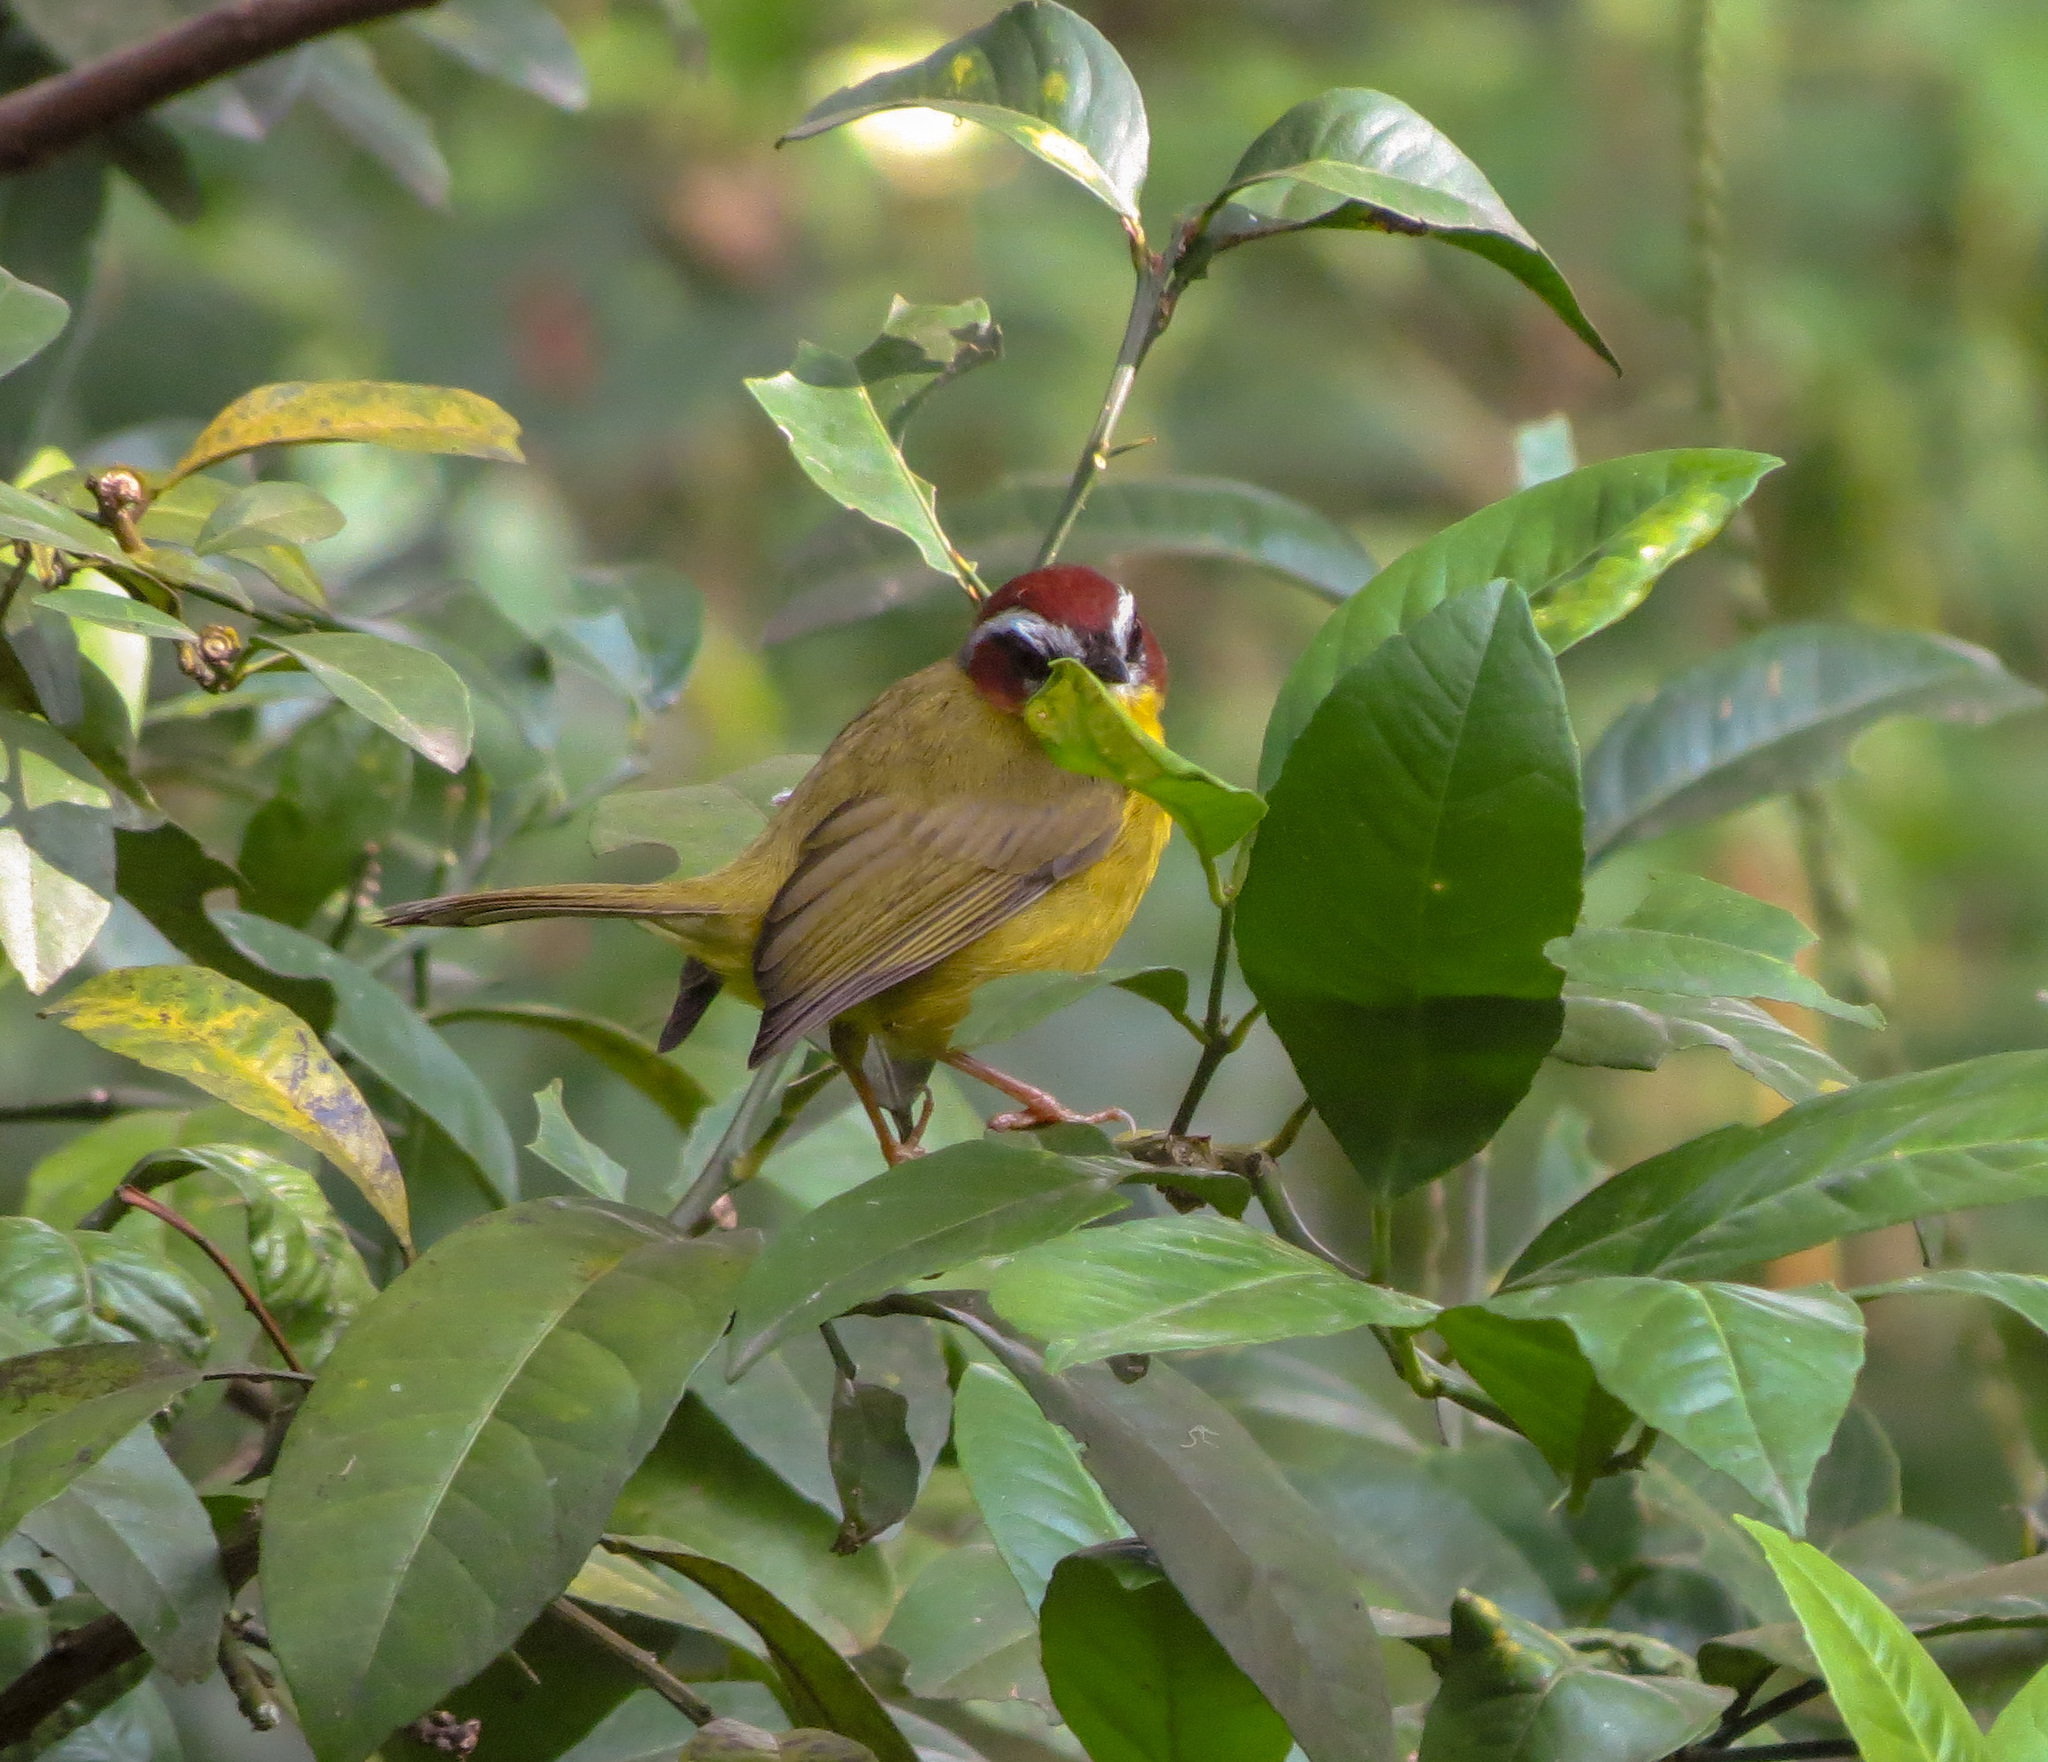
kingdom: Animalia
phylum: Chordata
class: Aves
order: Passeriformes
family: Parulidae
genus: Basileuterus
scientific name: Basileuterus rufifrons
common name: Rufous-capped warbler
